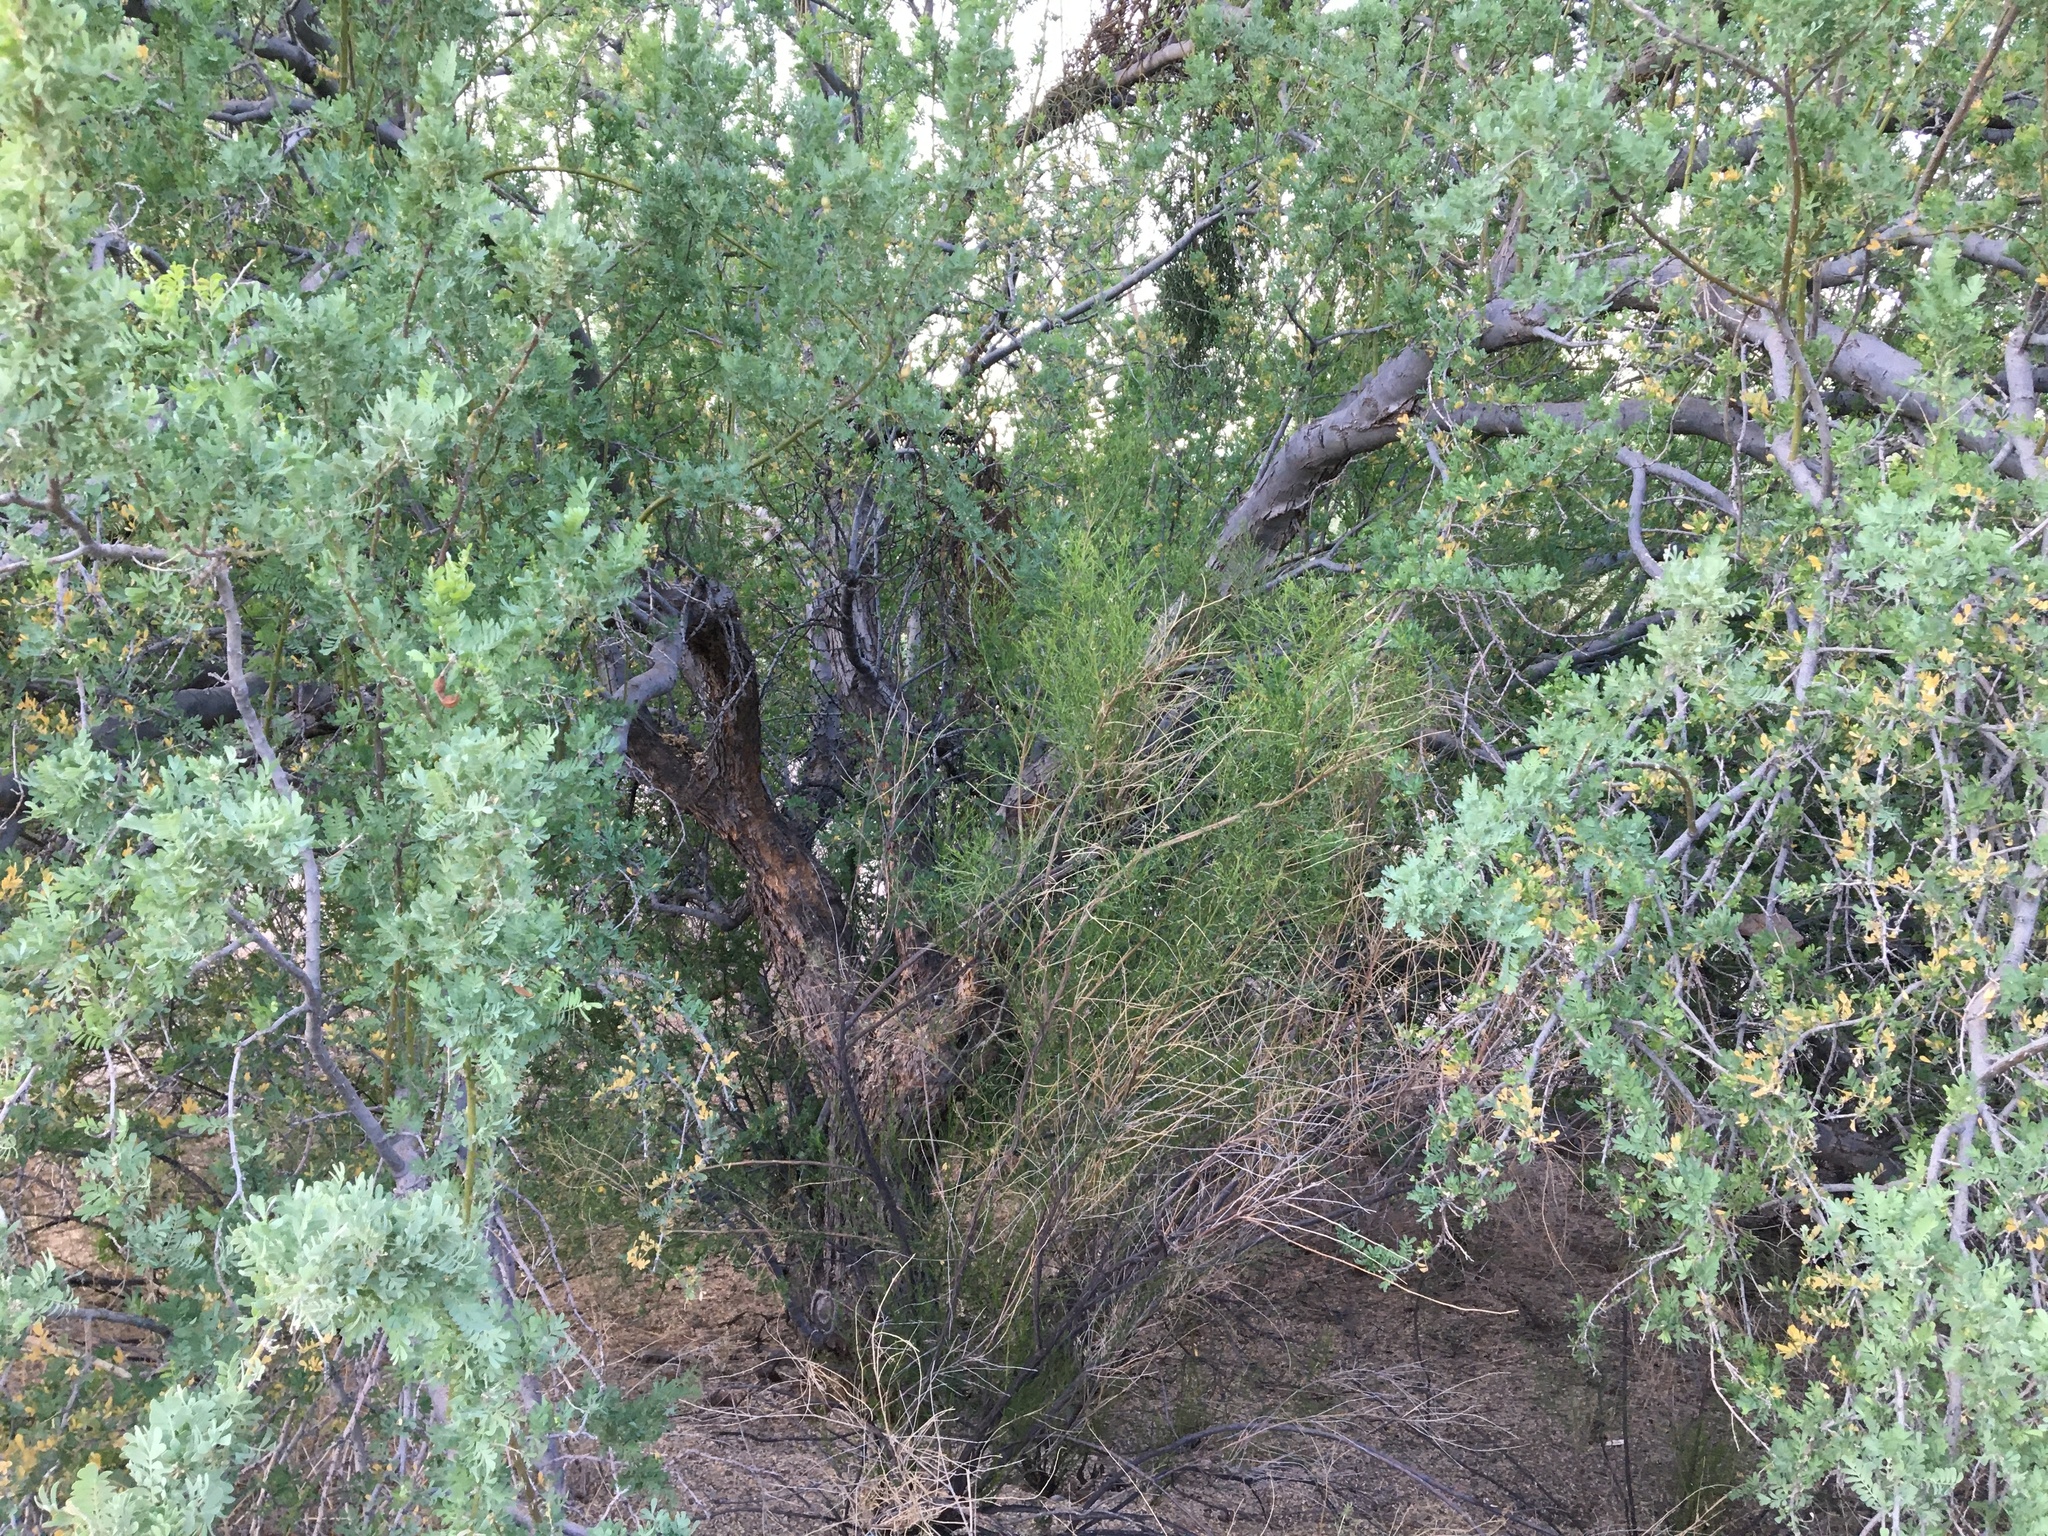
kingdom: Plantae
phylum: Tracheophyta
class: Magnoliopsida
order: Fabales
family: Fabaceae
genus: Olneya
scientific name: Olneya tesota
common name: Desert ironwood
